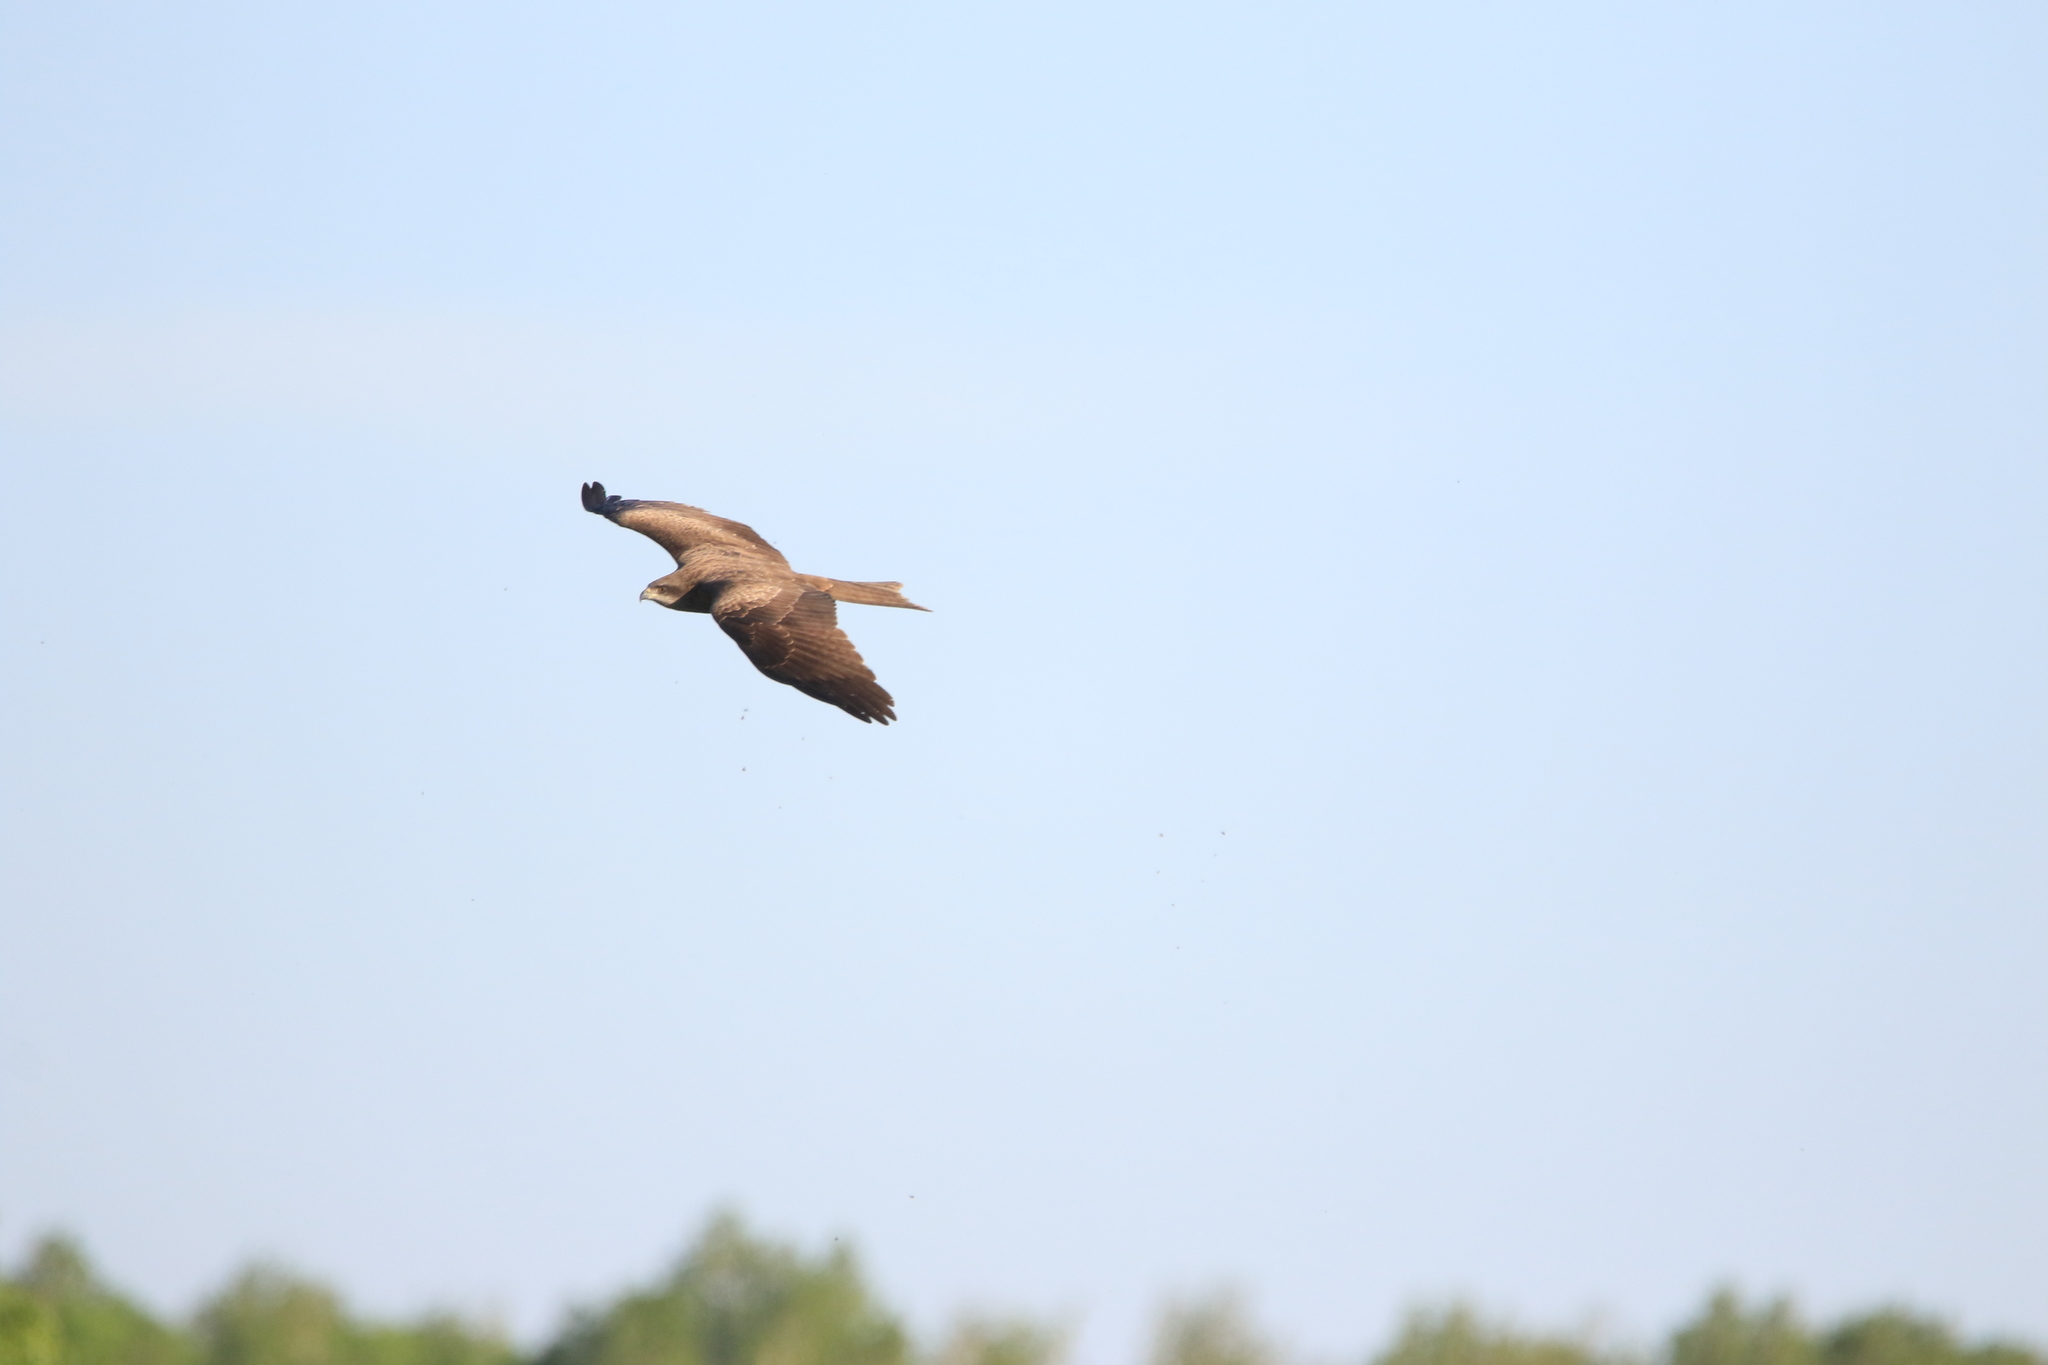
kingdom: Animalia
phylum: Chordata
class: Aves
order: Accipitriformes
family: Accipitridae
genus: Milvus
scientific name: Milvus migrans
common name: Black kite
